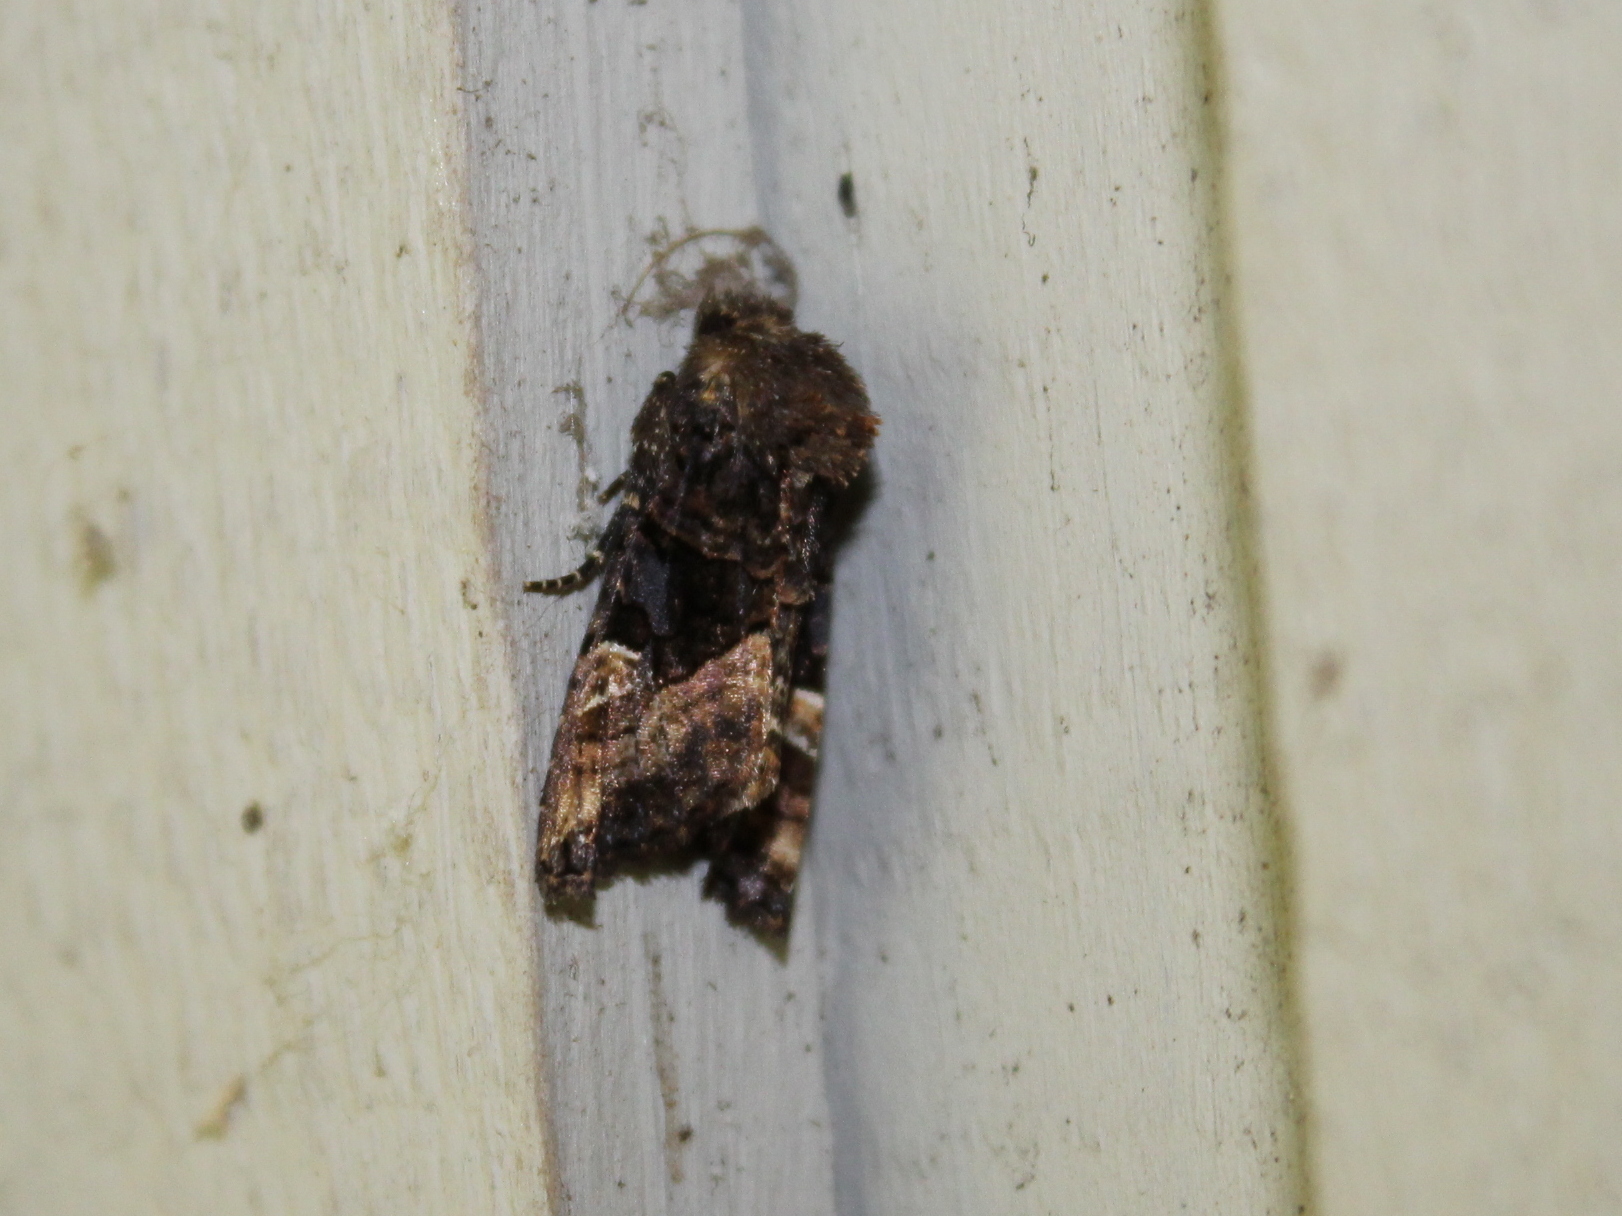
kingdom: Animalia
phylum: Arthropoda
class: Insecta
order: Lepidoptera
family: Noctuidae
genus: Euplexia
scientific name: Euplexia benesimilis
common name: American angle shades
